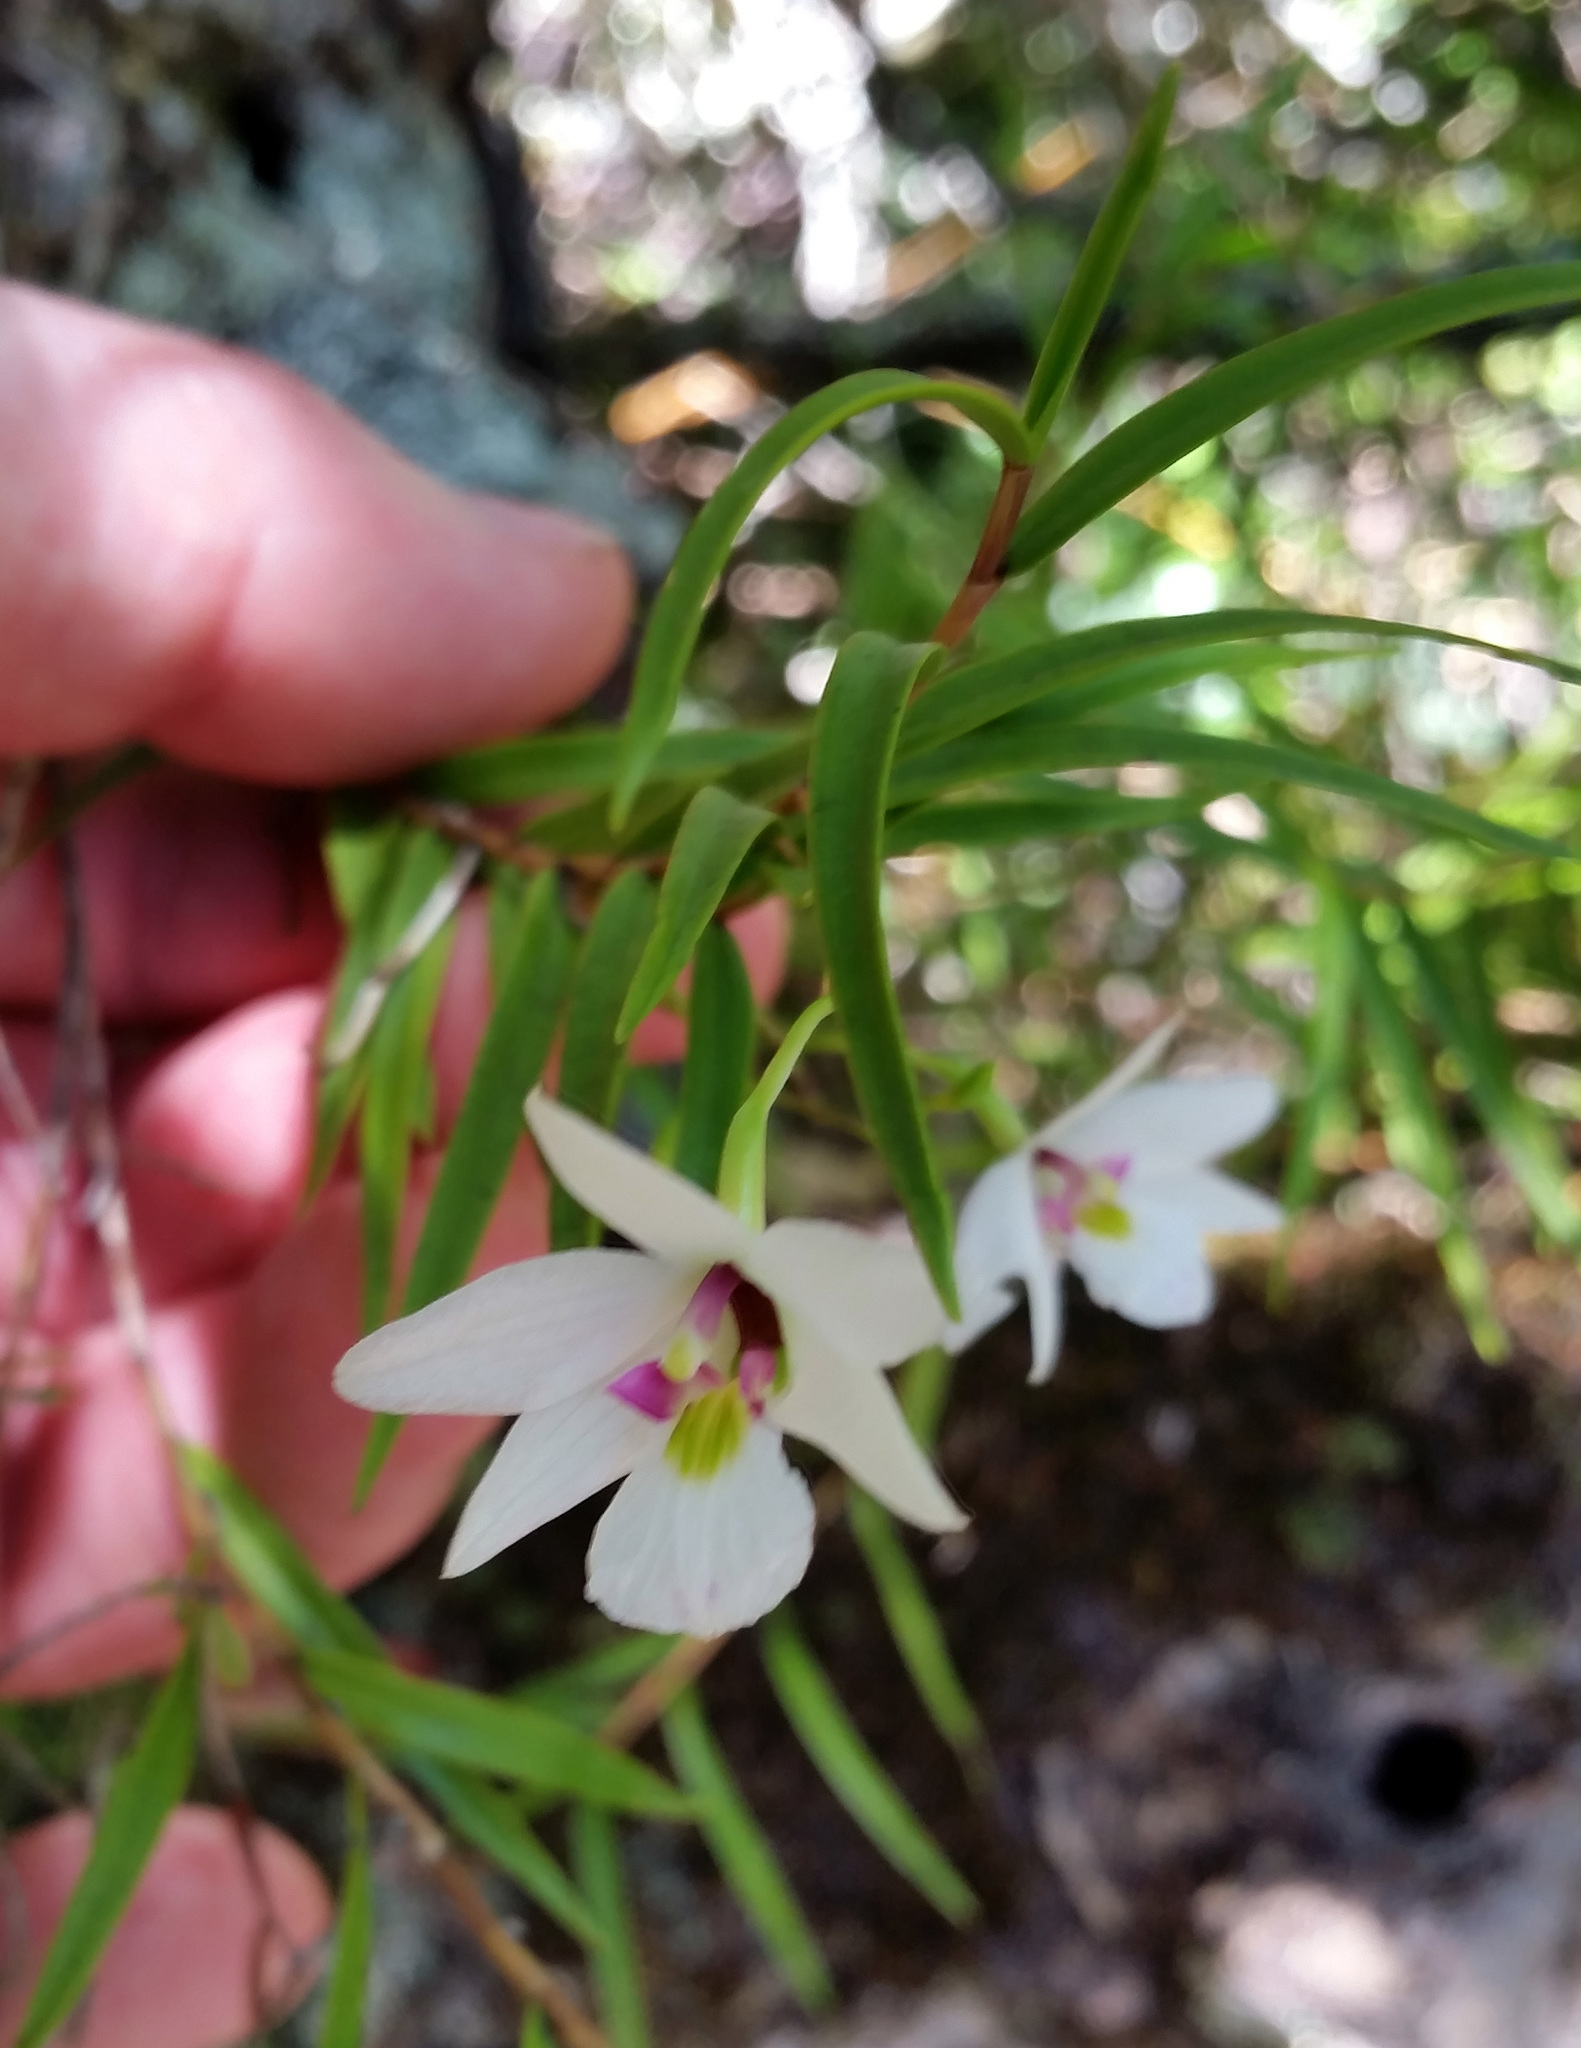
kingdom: Plantae
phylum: Tracheophyta
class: Liliopsida
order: Asparagales
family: Orchidaceae
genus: Dendrobium
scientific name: Dendrobium cunninghamii
